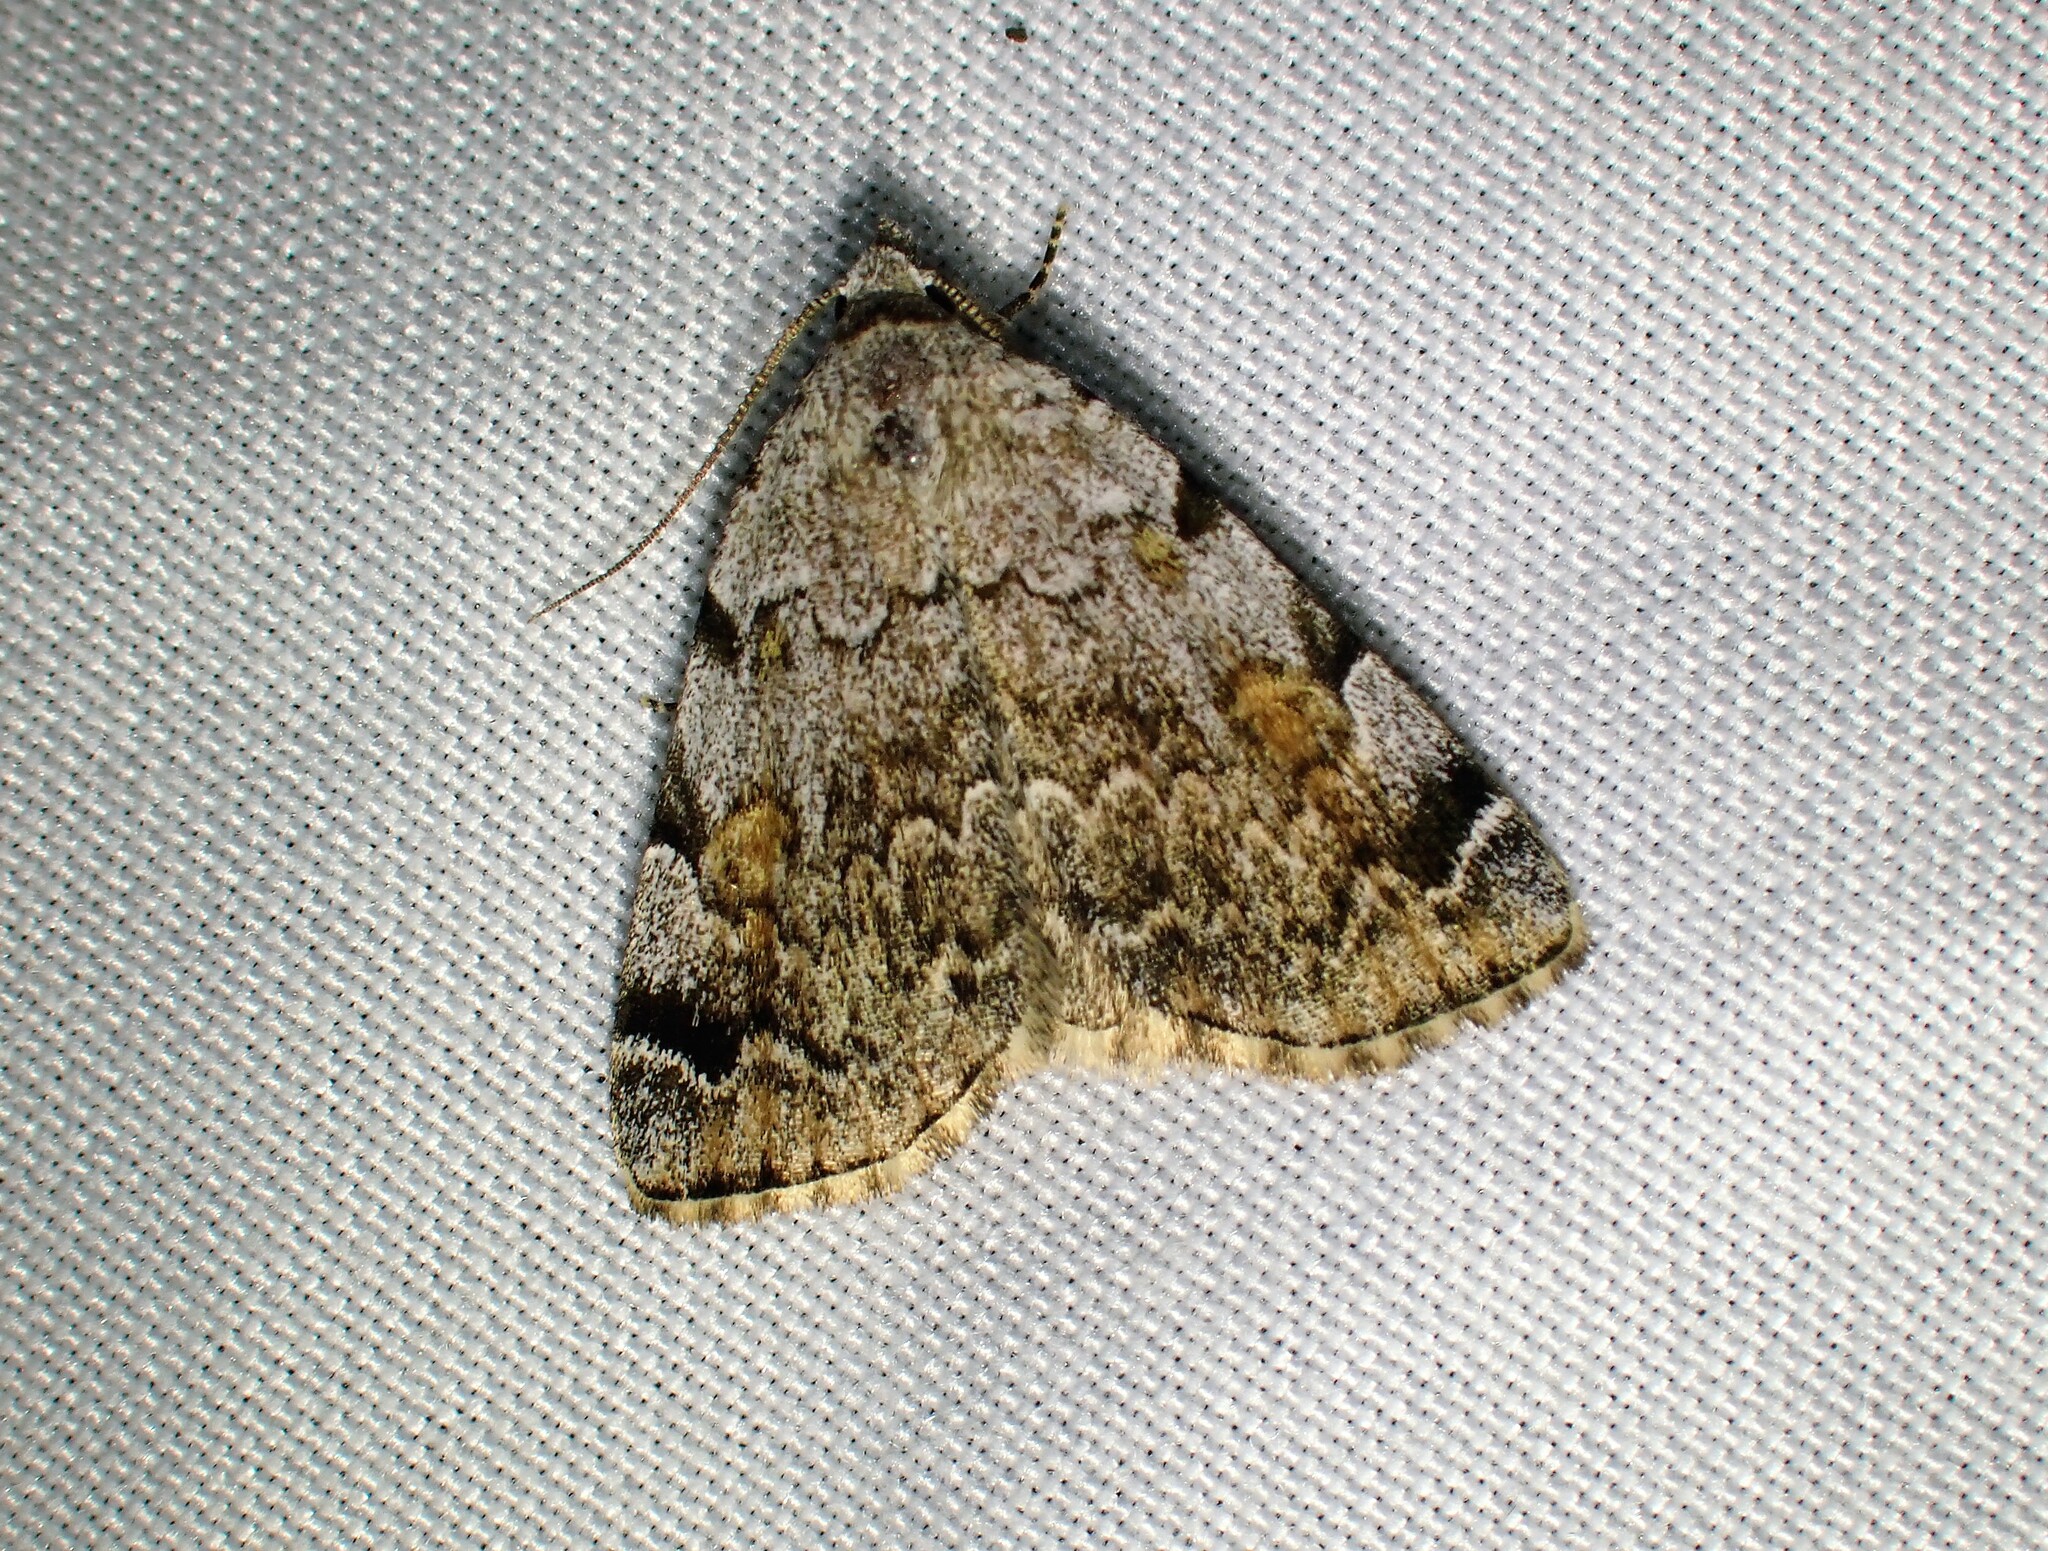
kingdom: Animalia
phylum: Arthropoda
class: Insecta
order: Lepidoptera
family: Erebidae
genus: Idia
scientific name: Idia americalis
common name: American idia moth
